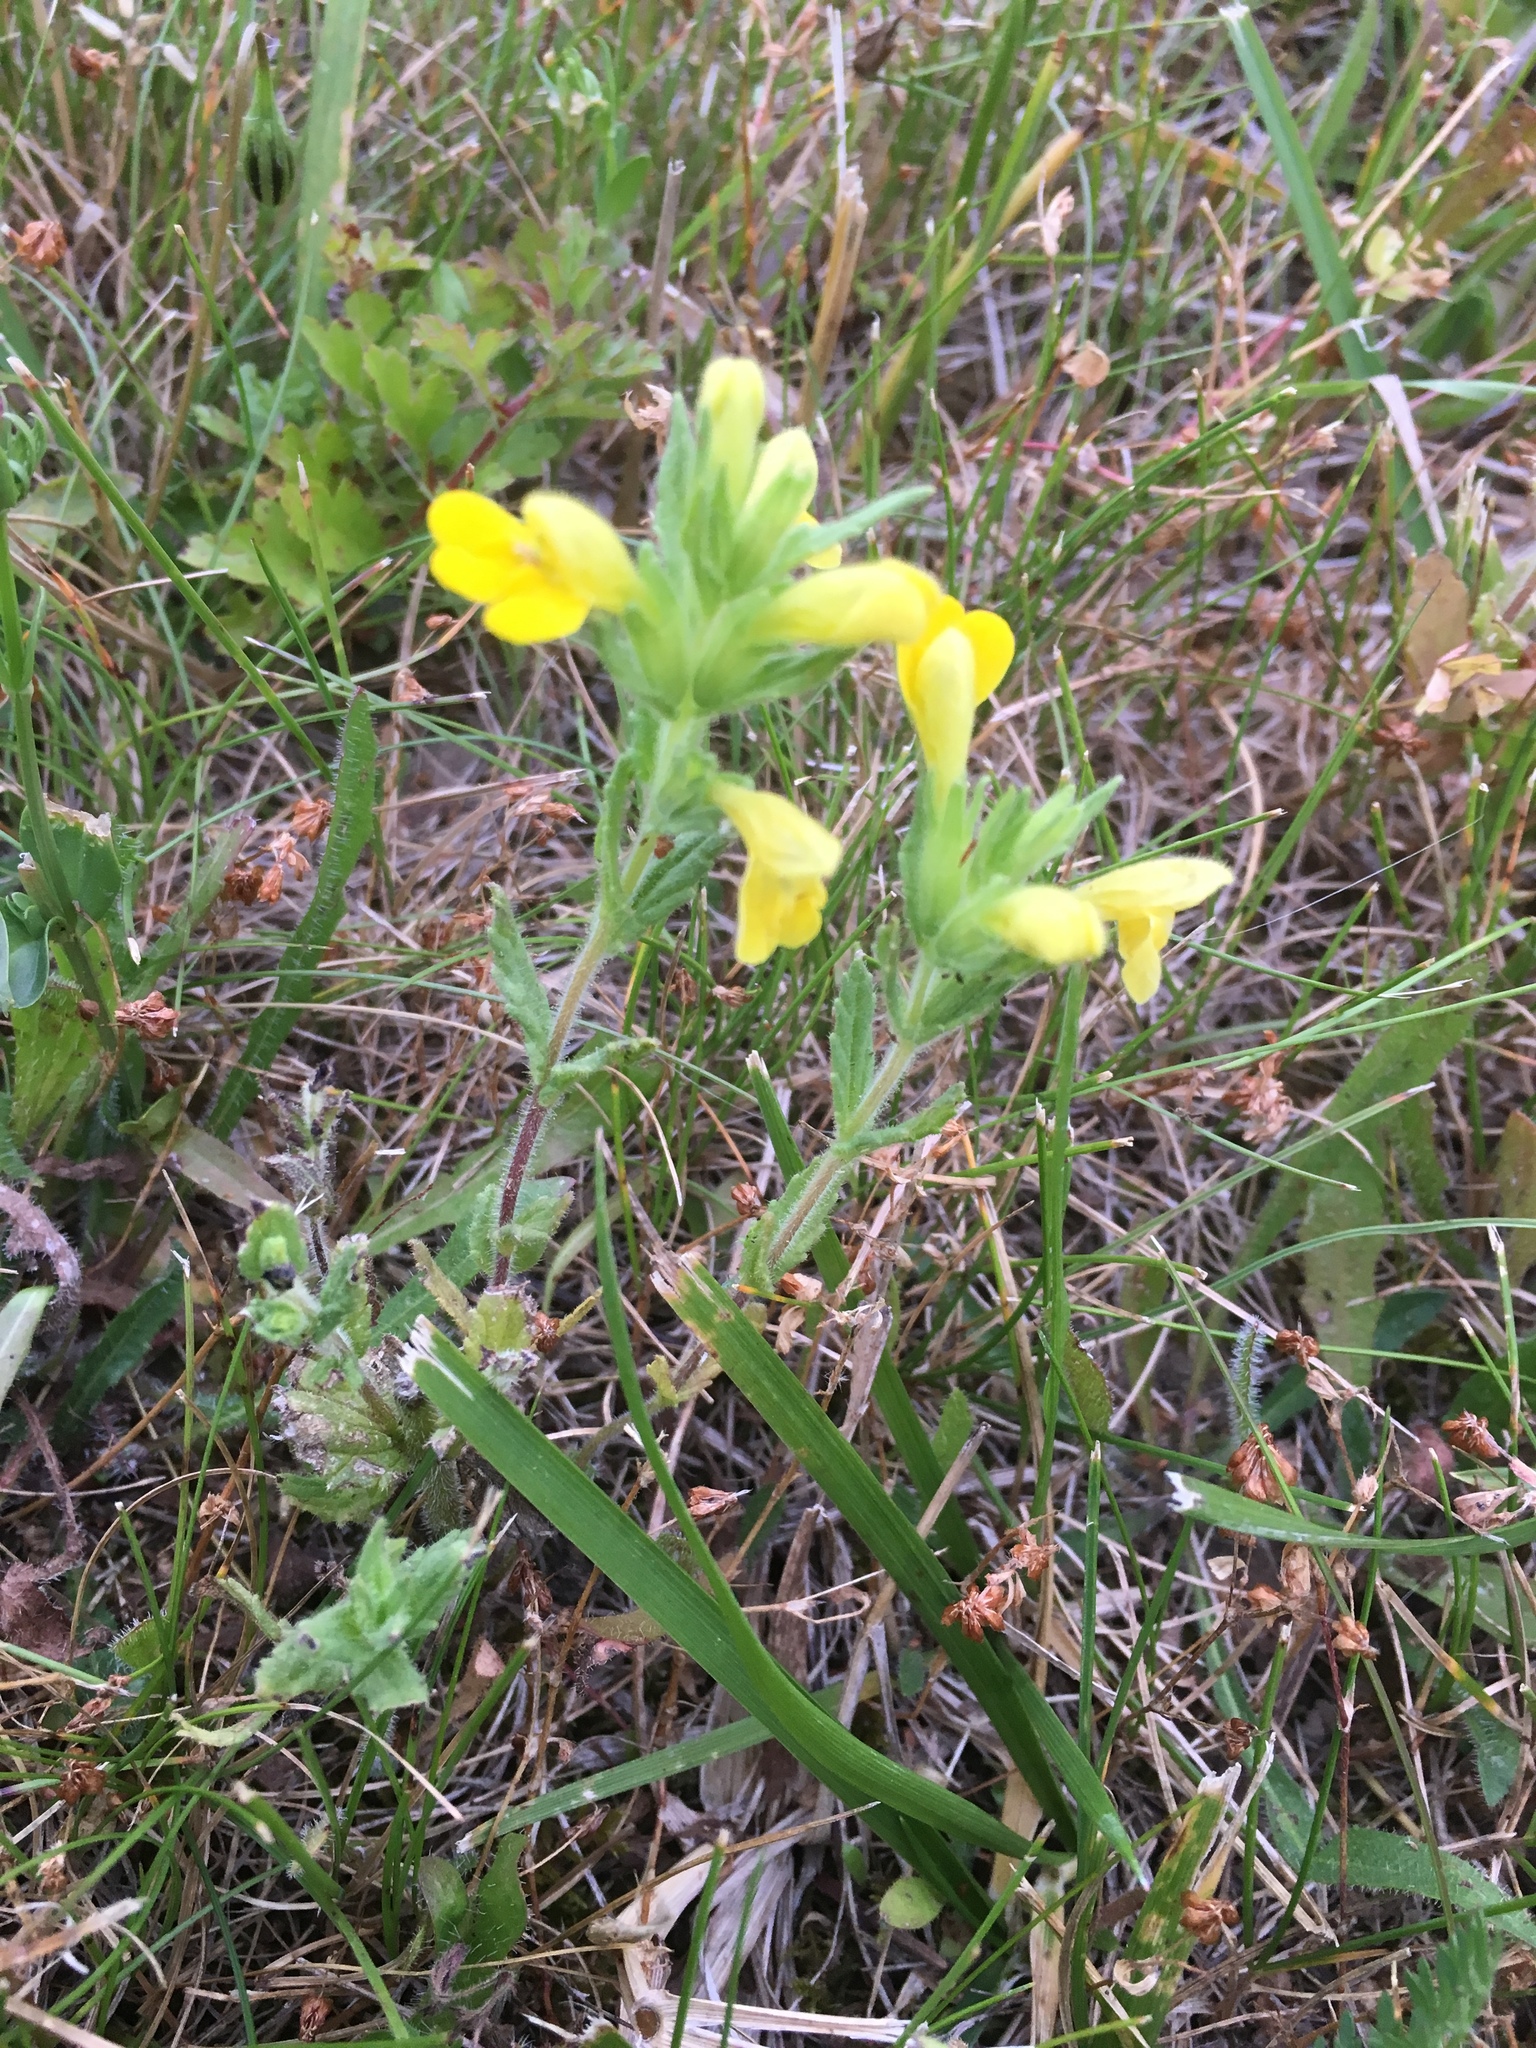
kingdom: Plantae
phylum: Tracheophyta
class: Magnoliopsida
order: Lamiales
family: Orobanchaceae
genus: Bellardia
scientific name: Bellardia viscosa
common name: Sticky parentucellia
